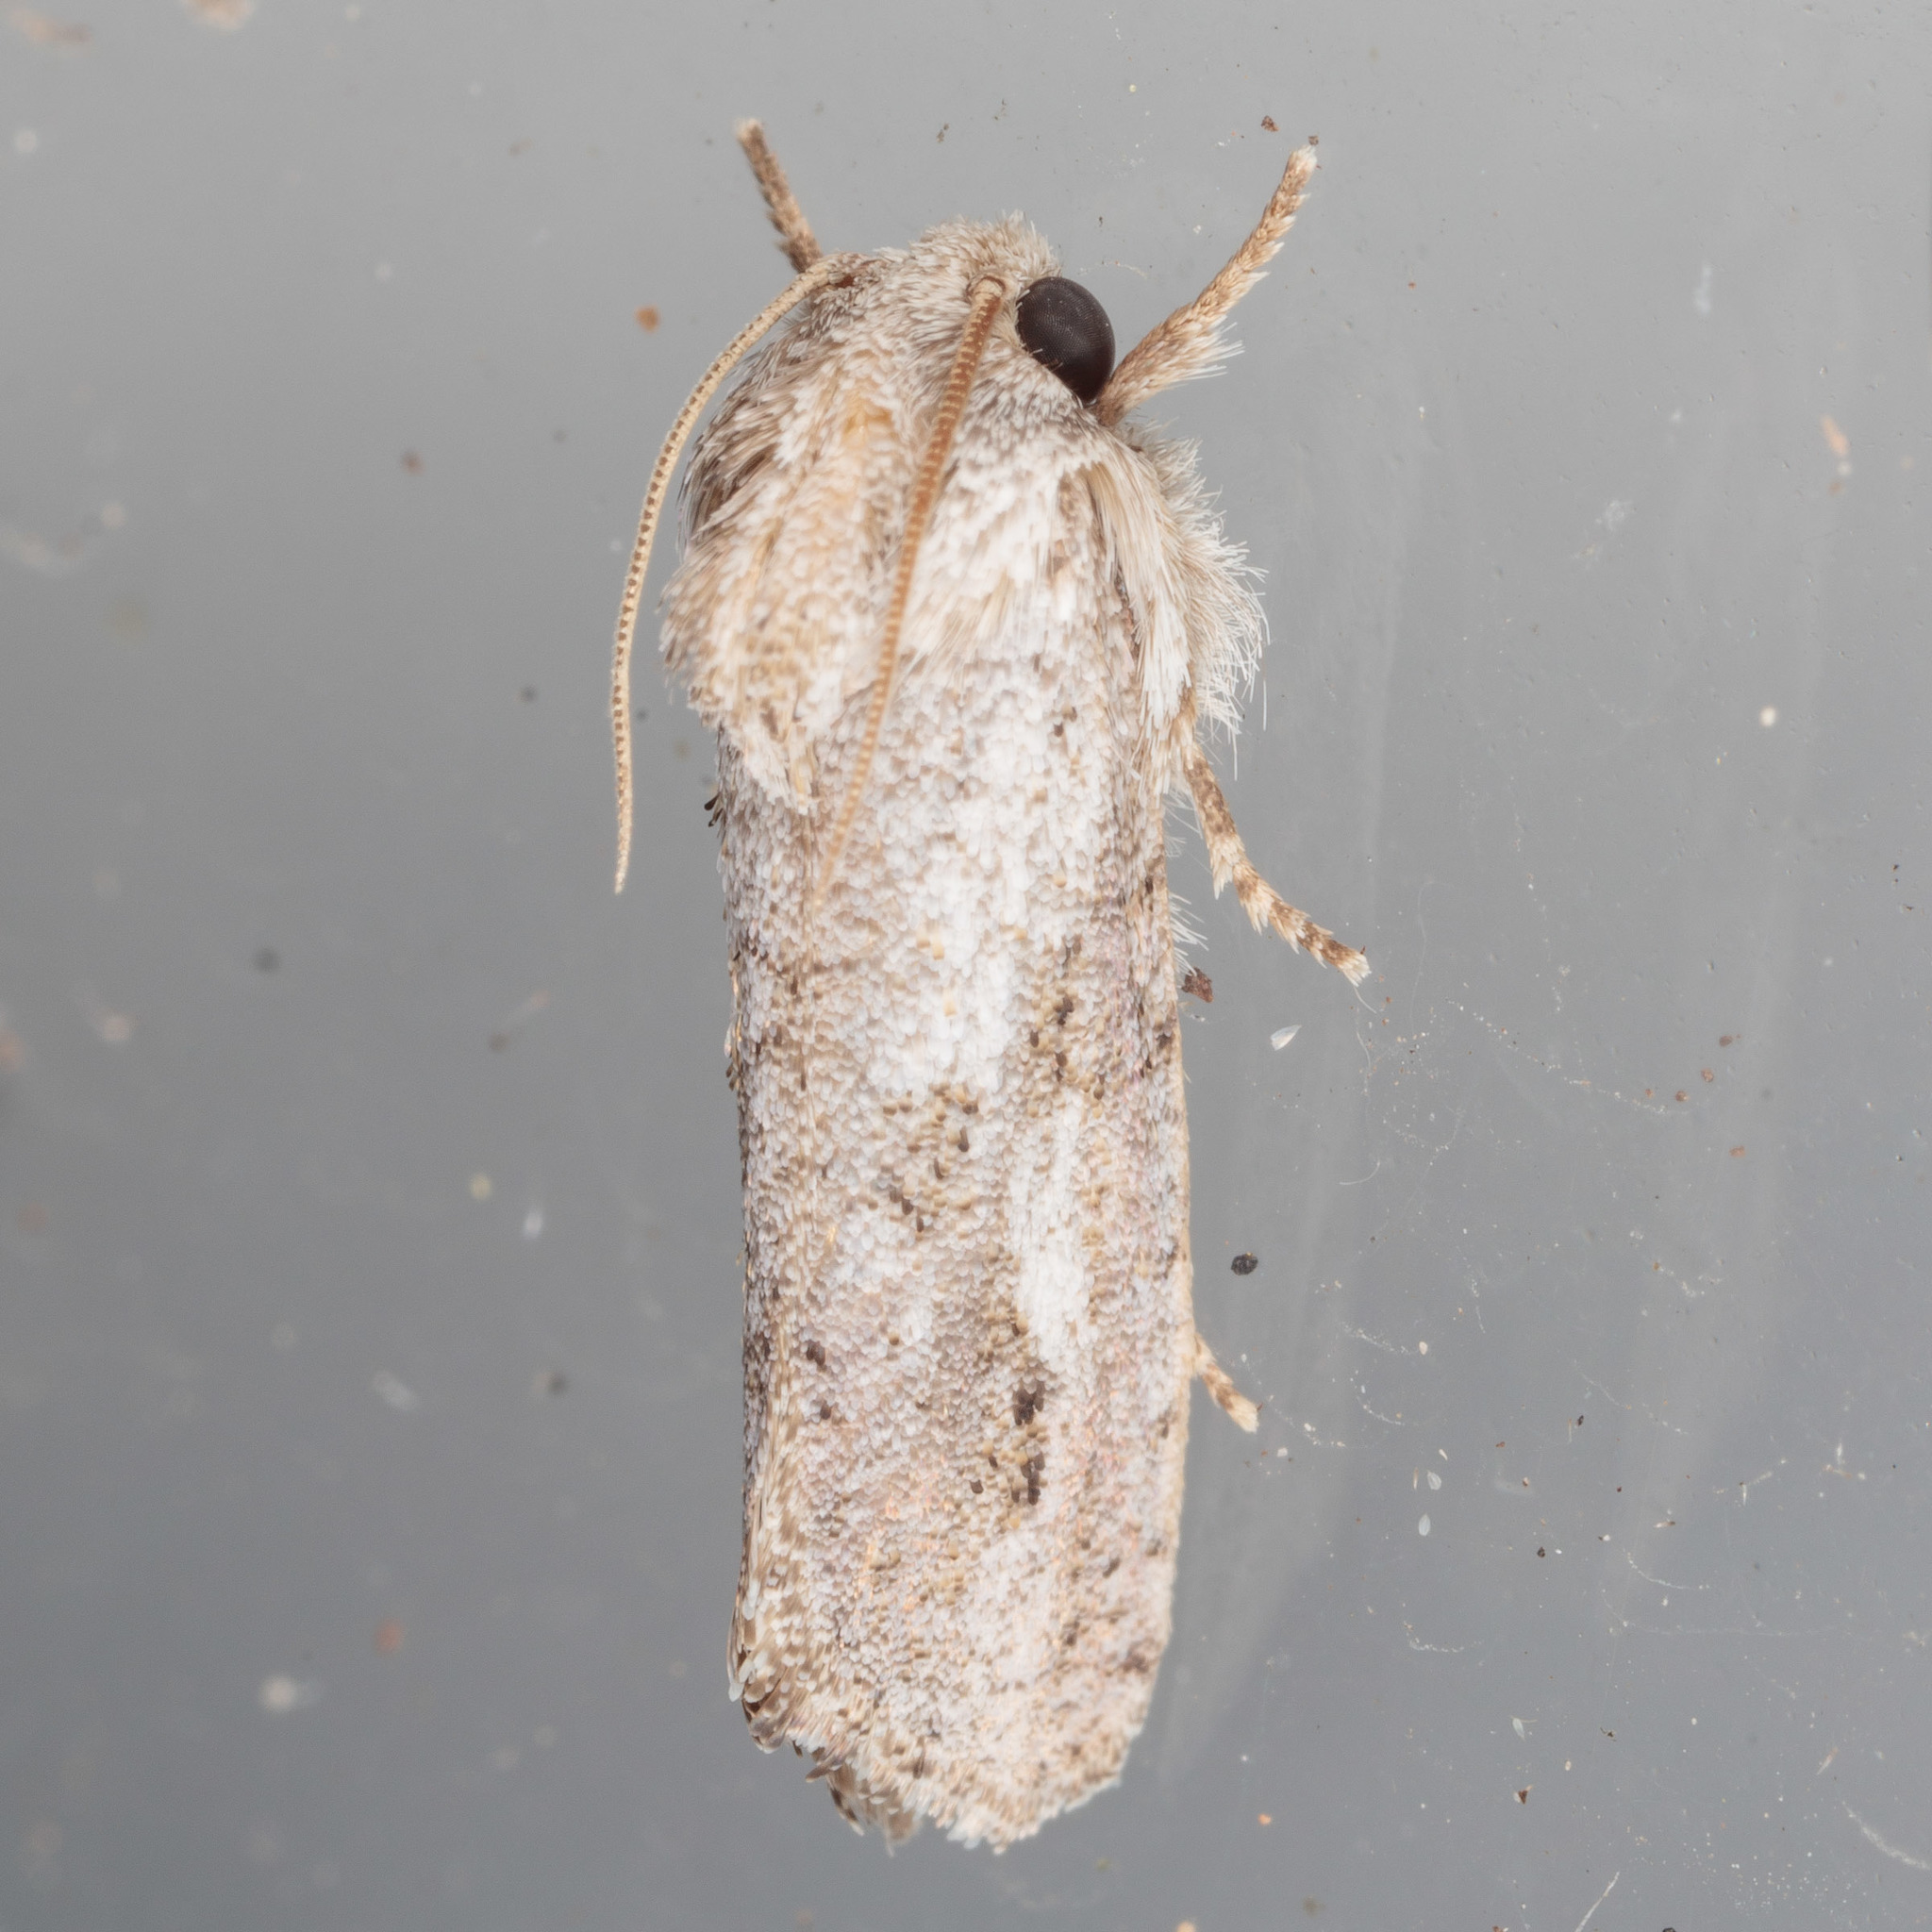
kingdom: Animalia
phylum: Arthropoda
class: Insecta
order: Lepidoptera
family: Tineidae
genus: Acrolophus
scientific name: Acrolophus griseus
